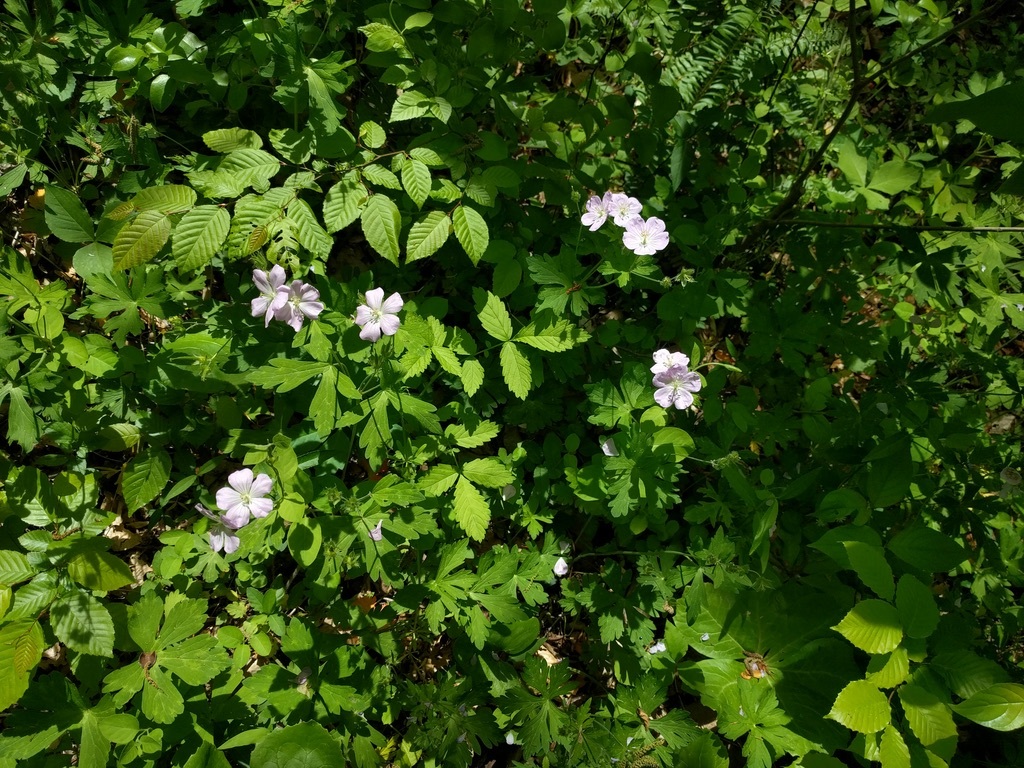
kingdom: Plantae
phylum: Tracheophyta
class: Magnoliopsida
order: Geraniales
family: Geraniaceae
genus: Geranium
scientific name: Geranium maculatum
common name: Spotted geranium
